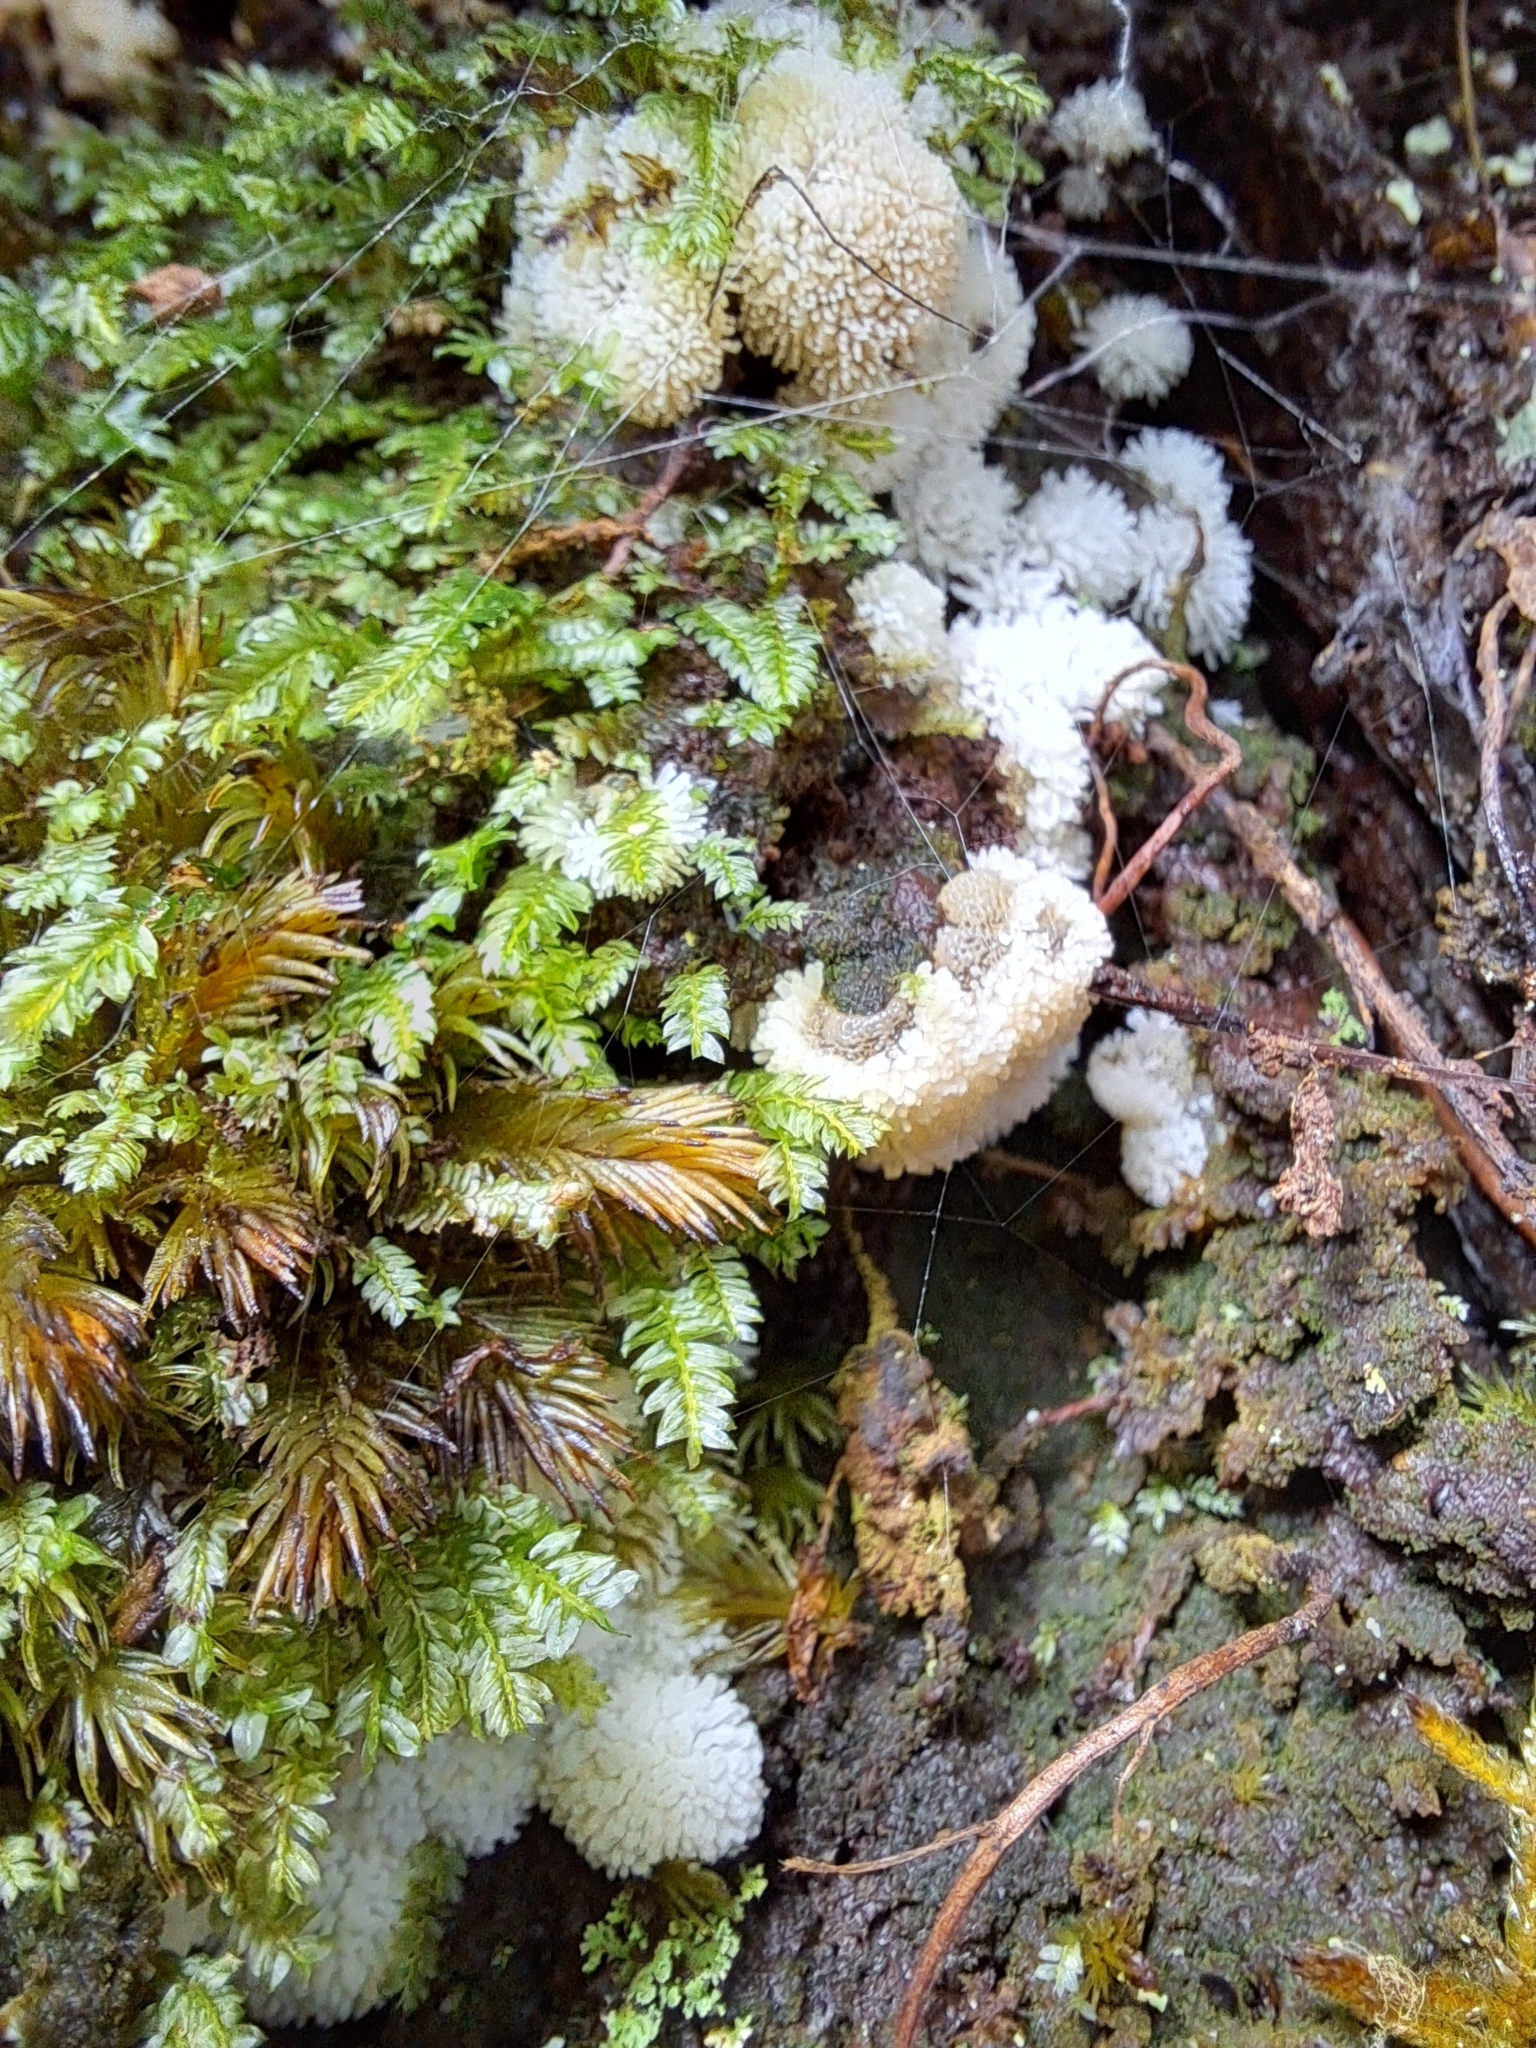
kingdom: Protozoa
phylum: Mycetozoa
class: Protosteliomycetes
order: Ceratiomyxales
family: Ceratiomyxaceae
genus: Ceratiomyxa
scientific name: Ceratiomyxa fruticulosa
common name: Honeycomb coral slime mold
